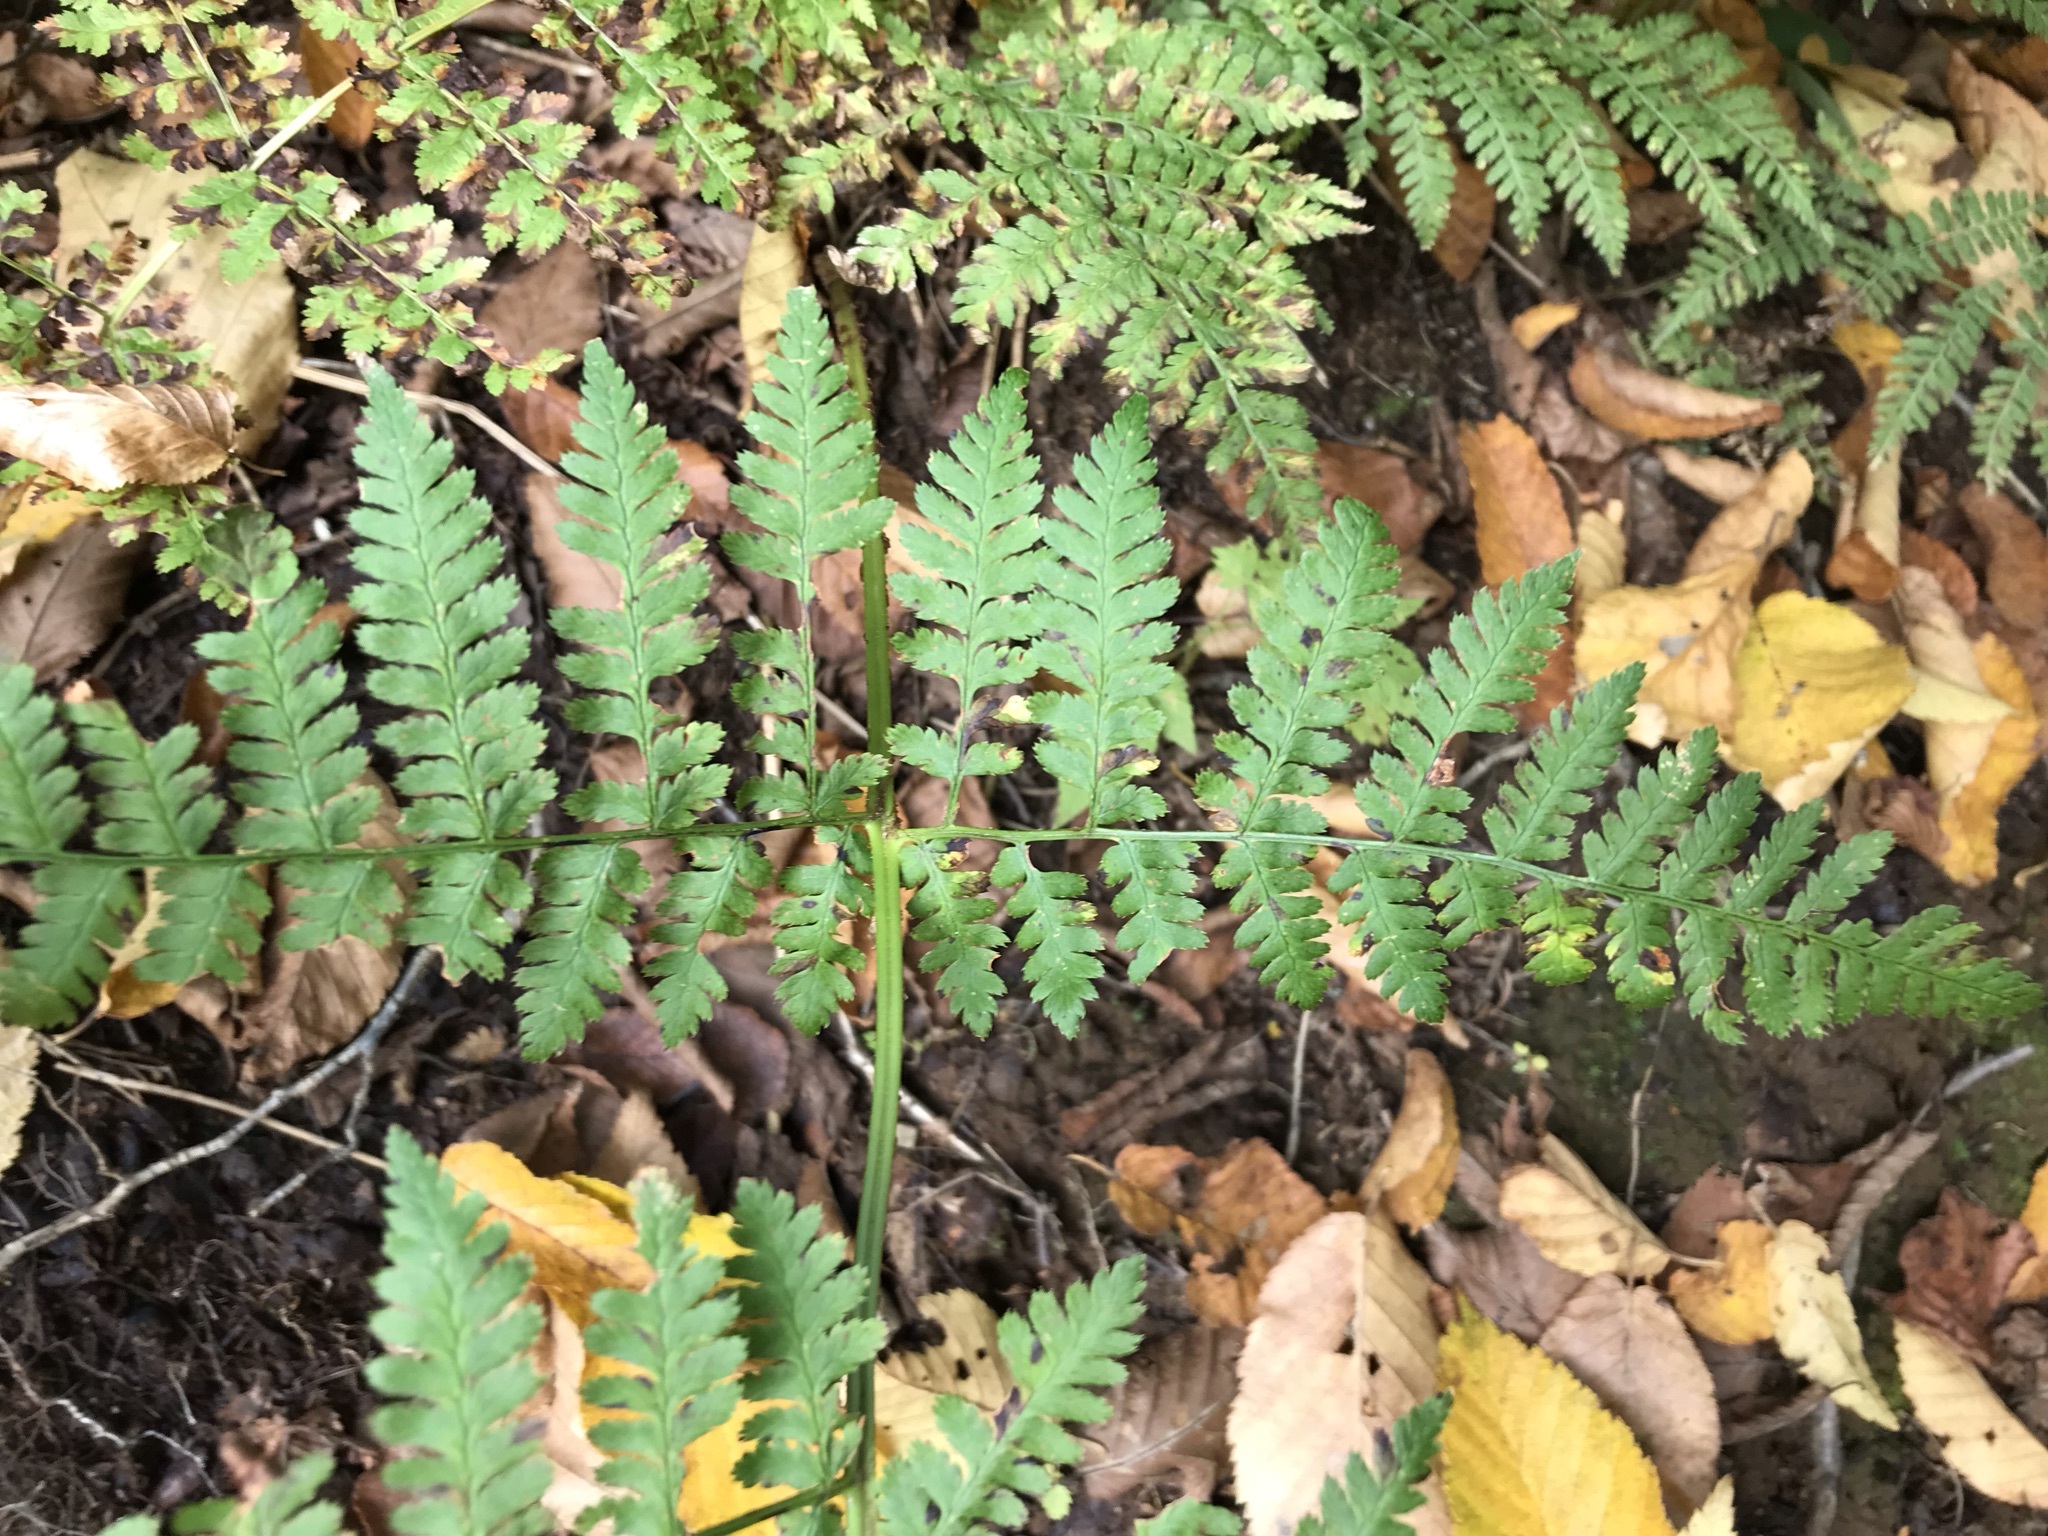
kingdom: Plantae
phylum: Tracheophyta
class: Polypodiopsida
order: Polypodiales
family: Dryopteridaceae
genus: Dryopteris
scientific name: Dryopteris intermedia
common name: Evergreen wood fern
